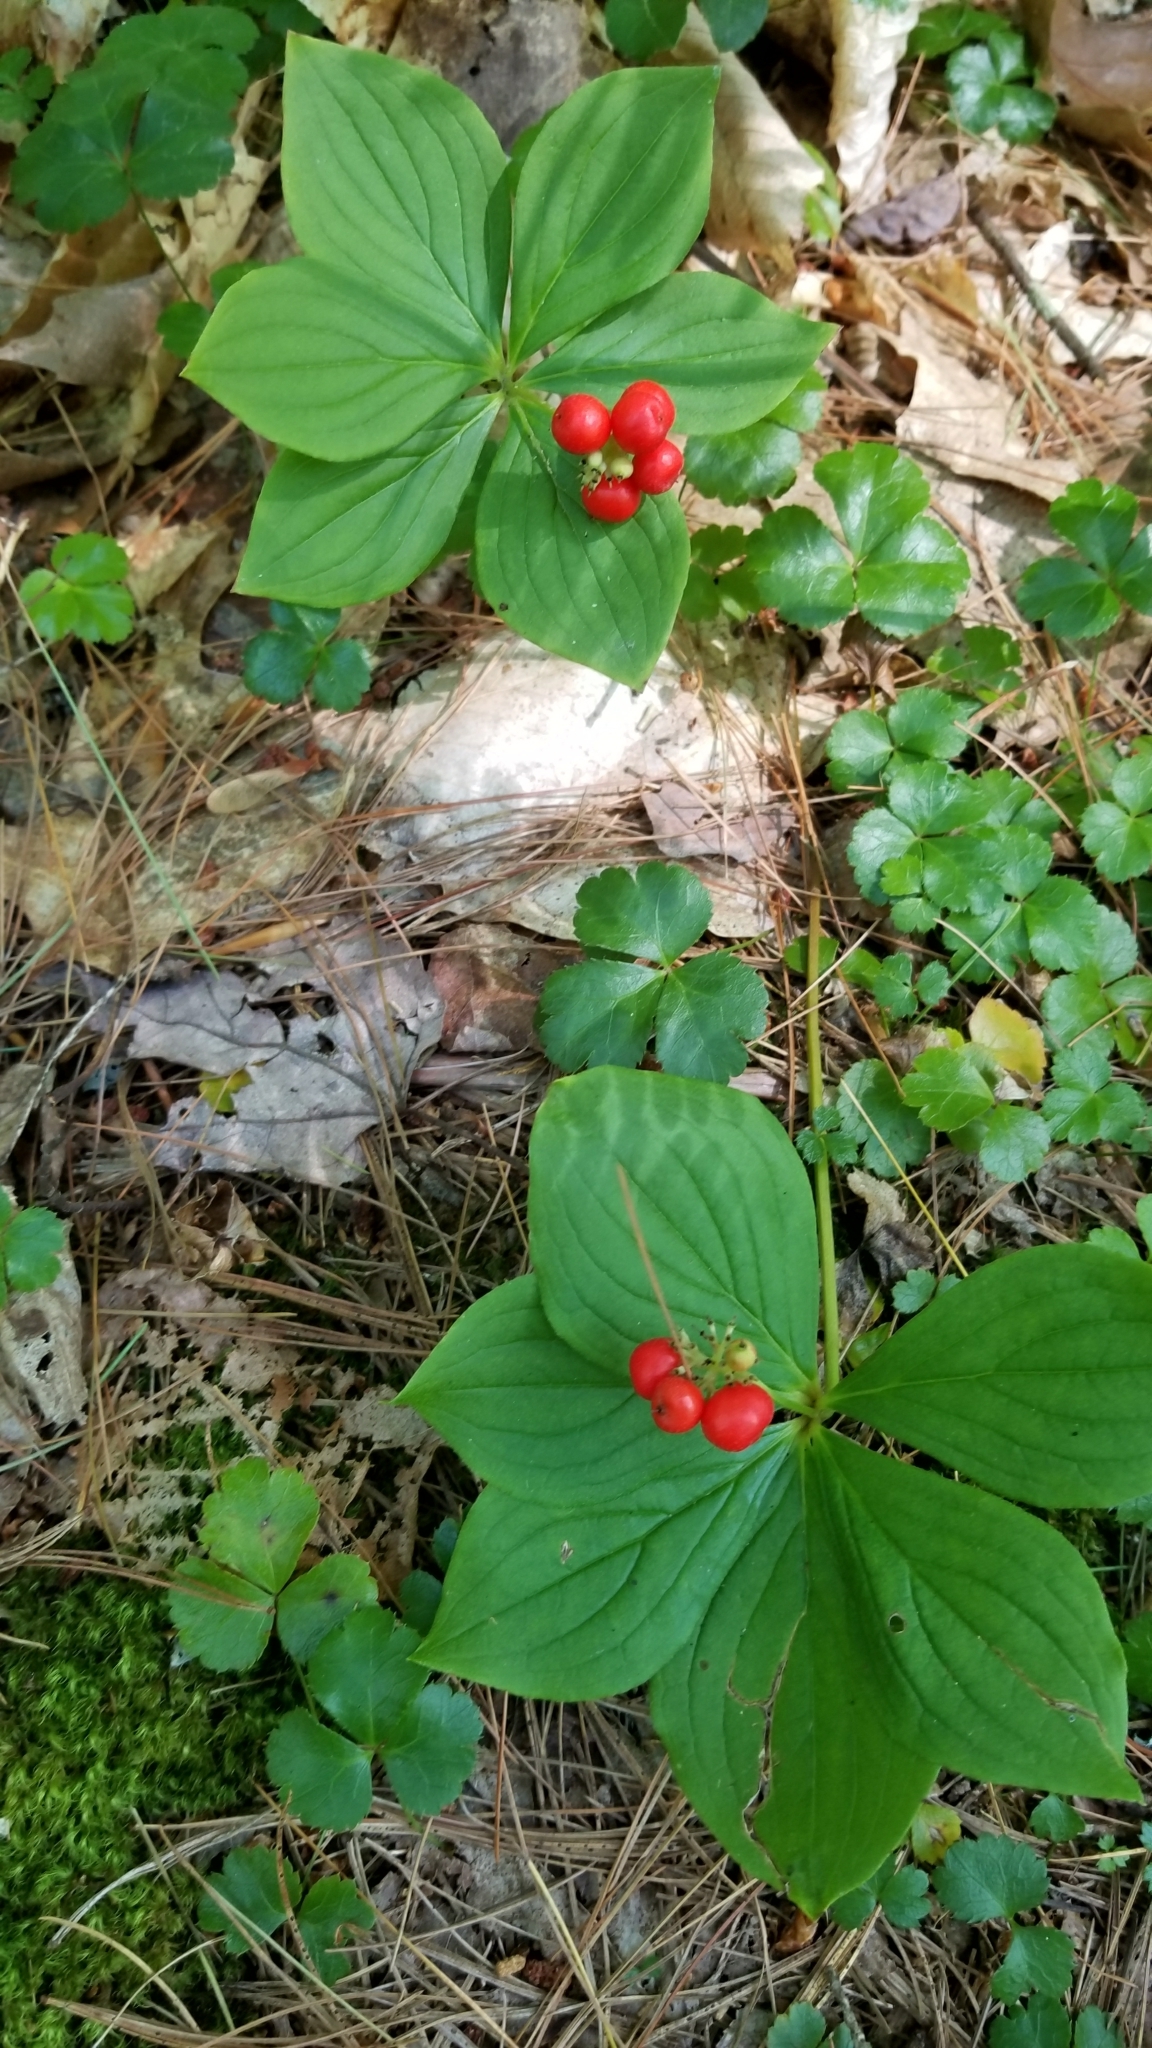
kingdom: Plantae
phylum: Tracheophyta
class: Magnoliopsida
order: Cornales
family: Cornaceae
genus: Cornus
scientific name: Cornus canadensis
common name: Creeping dogwood
